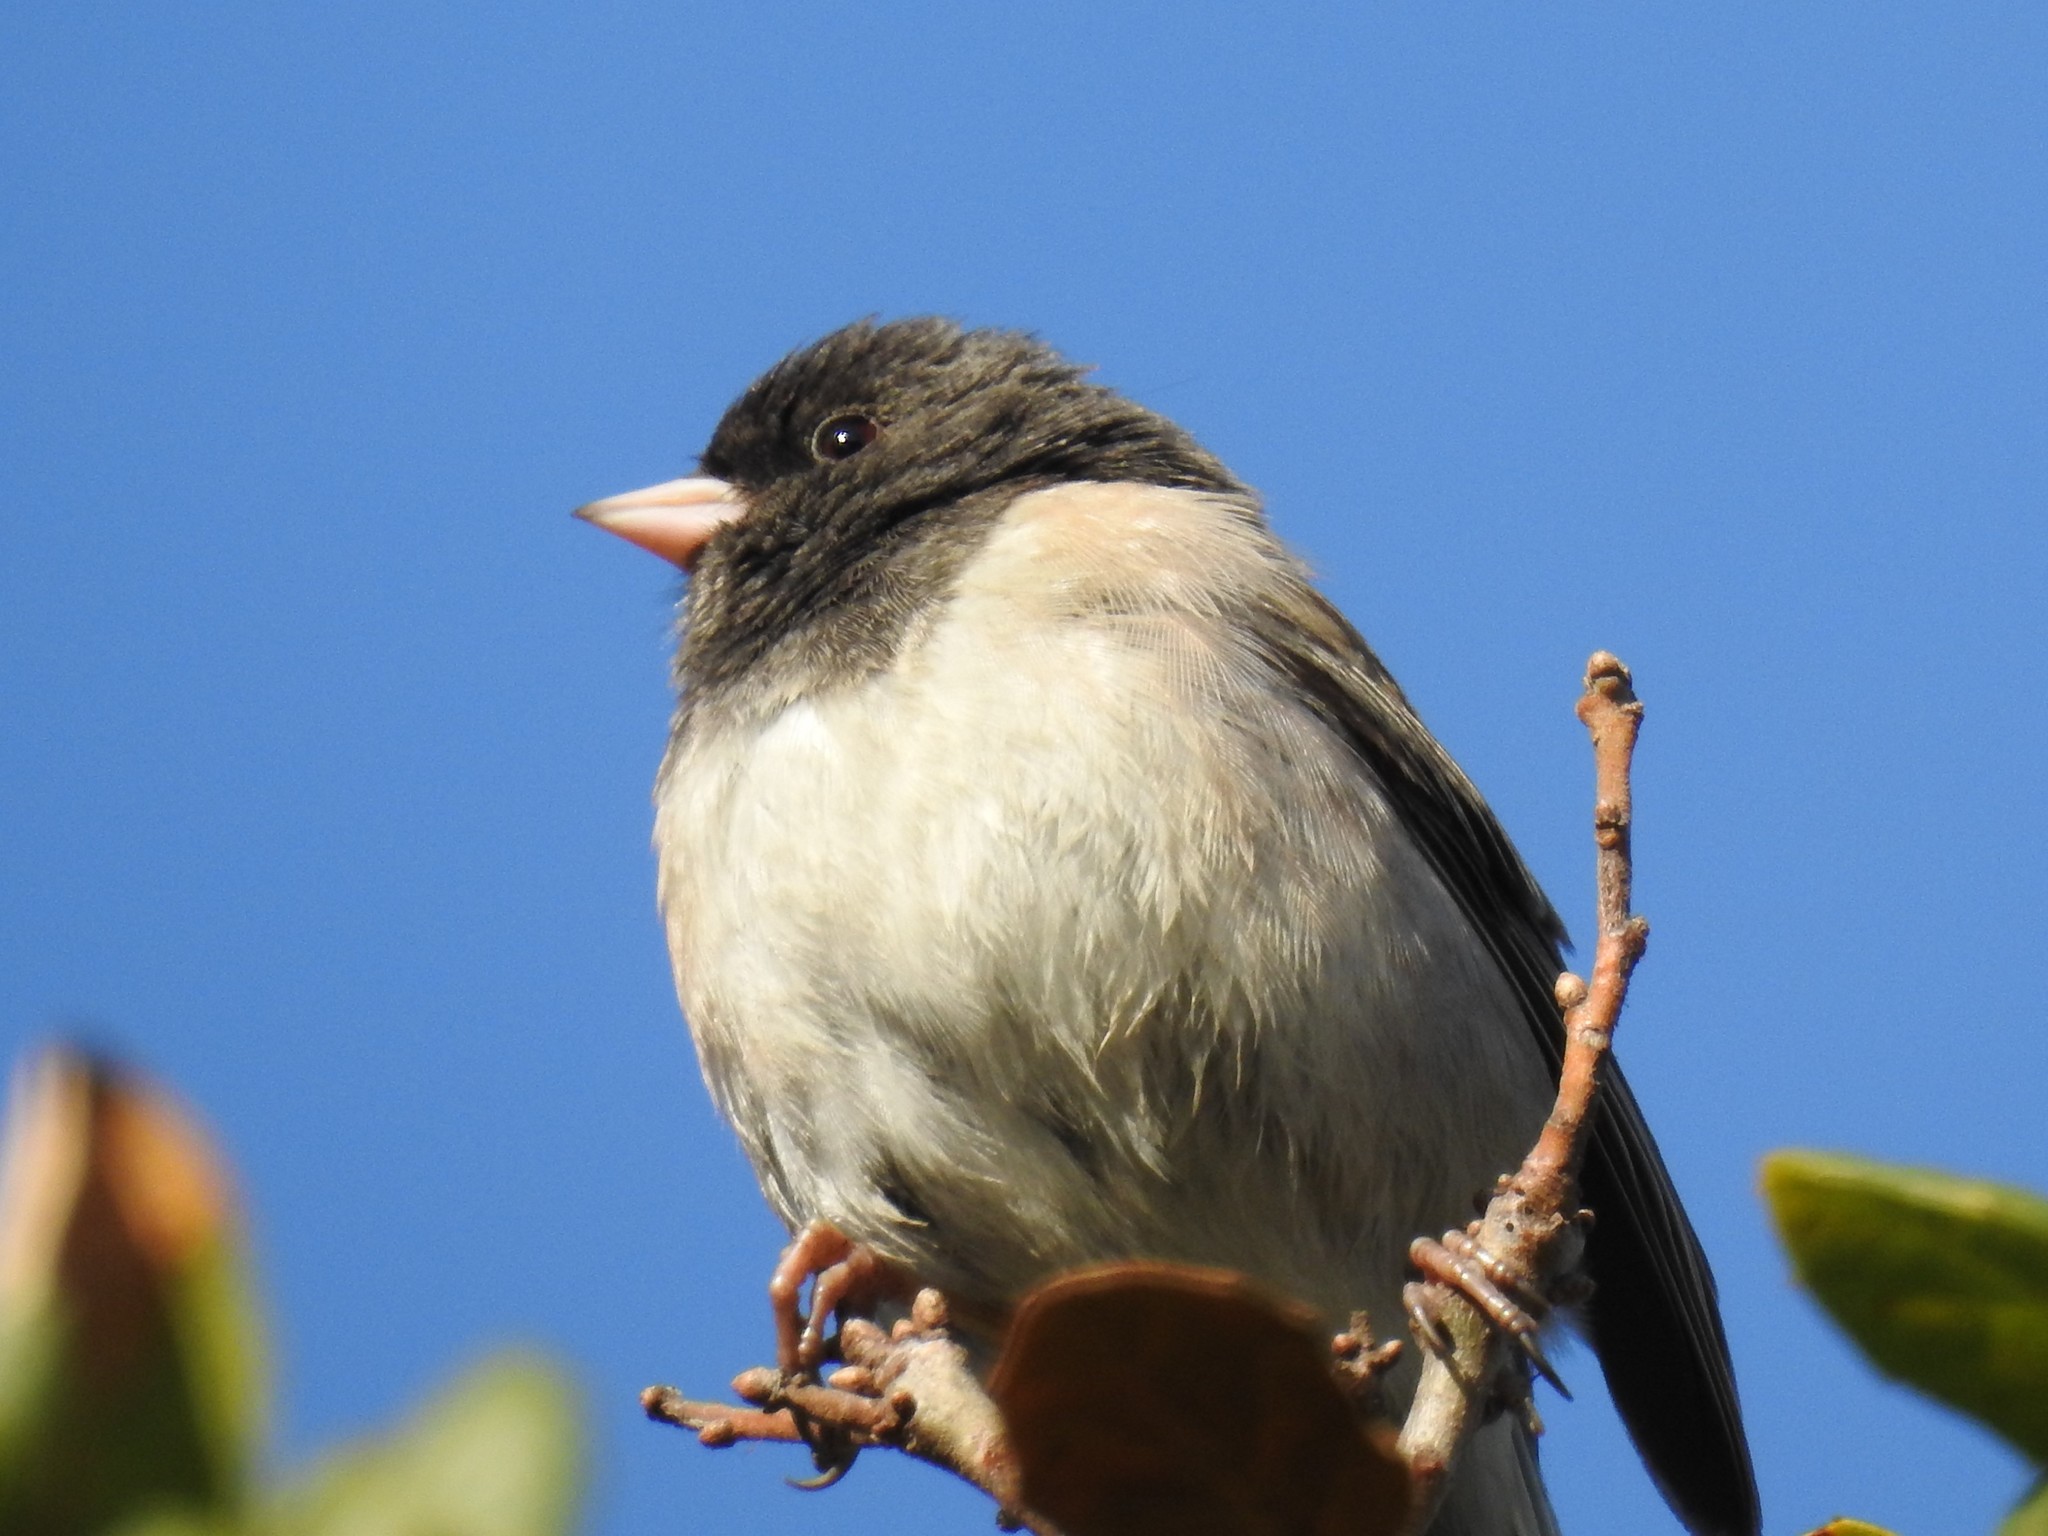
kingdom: Animalia
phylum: Chordata
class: Aves
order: Passeriformes
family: Passerellidae
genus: Junco
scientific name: Junco hyemalis
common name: Dark-eyed junco
